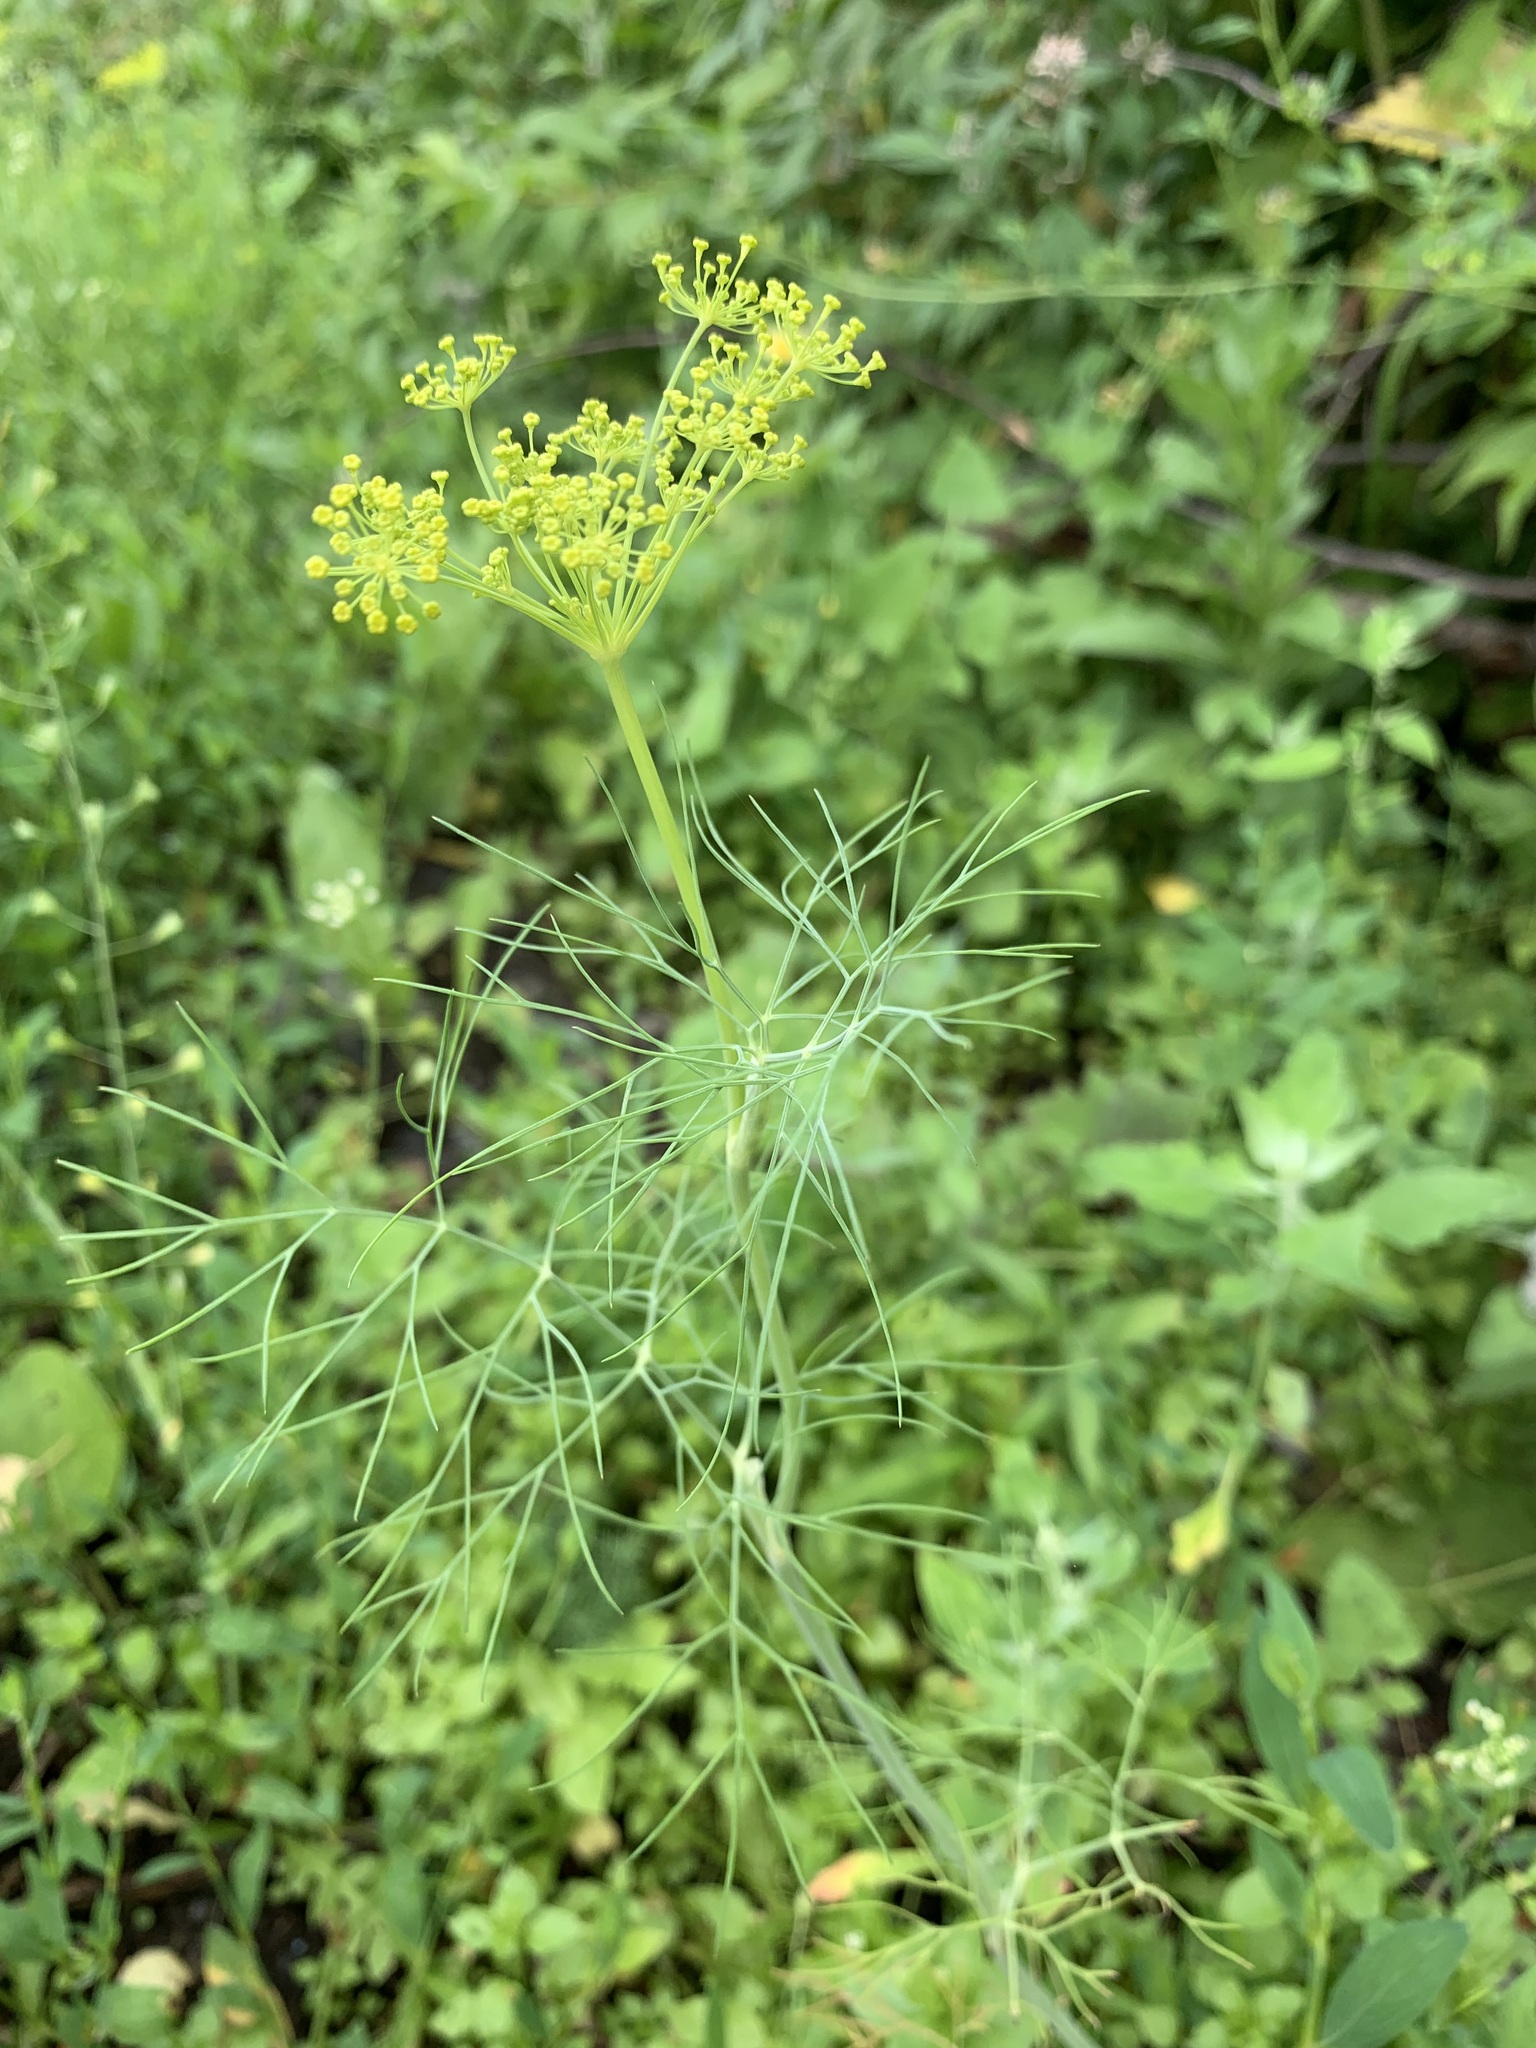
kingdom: Plantae
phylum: Tracheophyta
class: Magnoliopsida
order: Apiales
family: Apiaceae
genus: Anethum
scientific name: Anethum graveolens
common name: Dill
